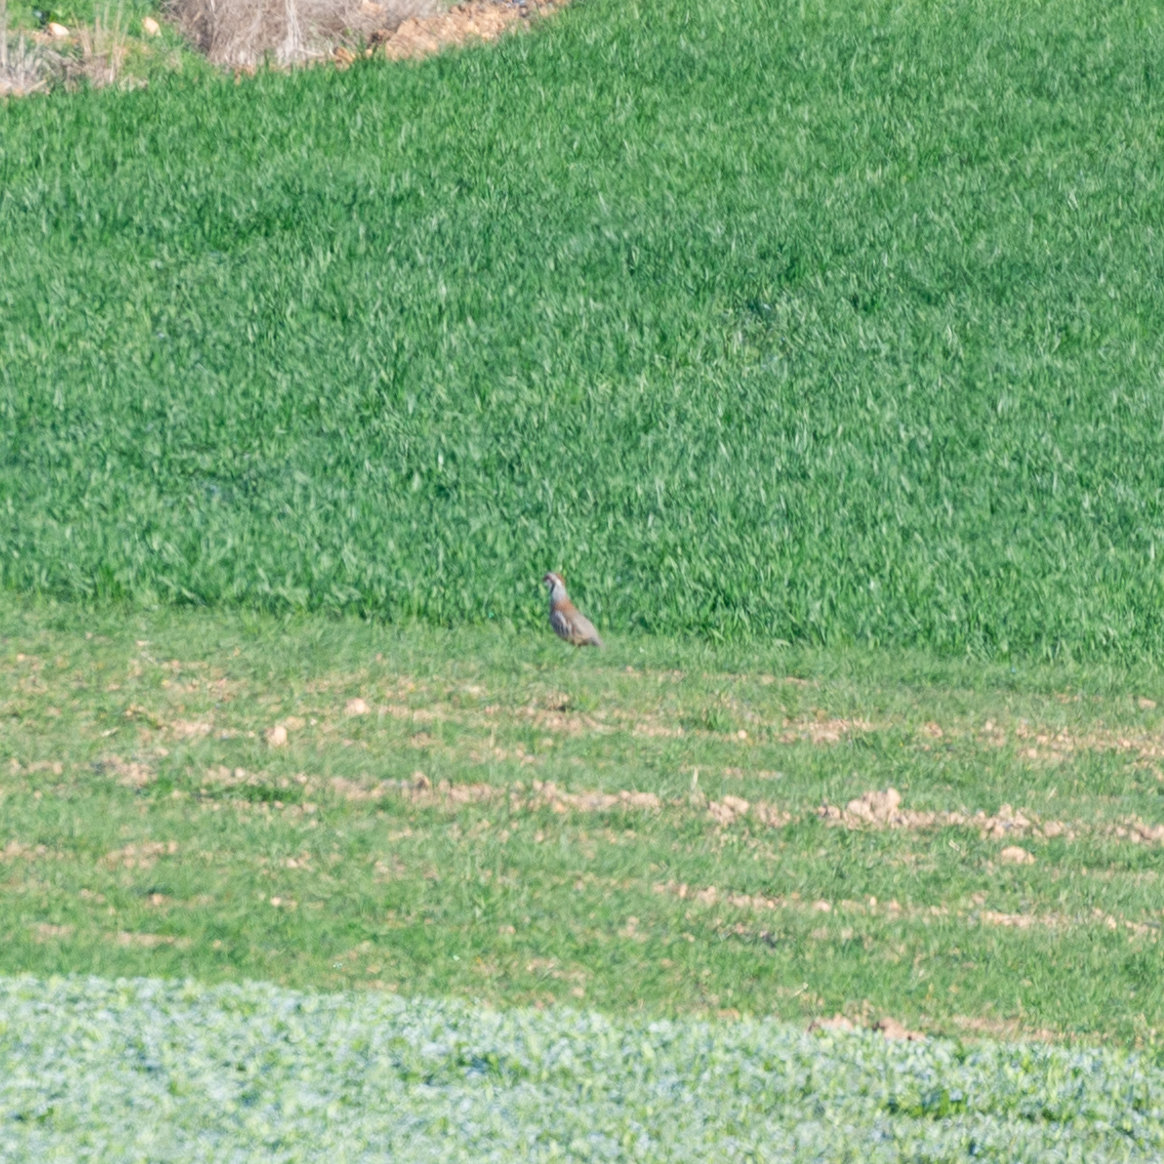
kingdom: Animalia
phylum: Chordata
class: Aves
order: Galliformes
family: Phasianidae
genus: Alectoris
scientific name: Alectoris rufa
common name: Red-legged partridge
